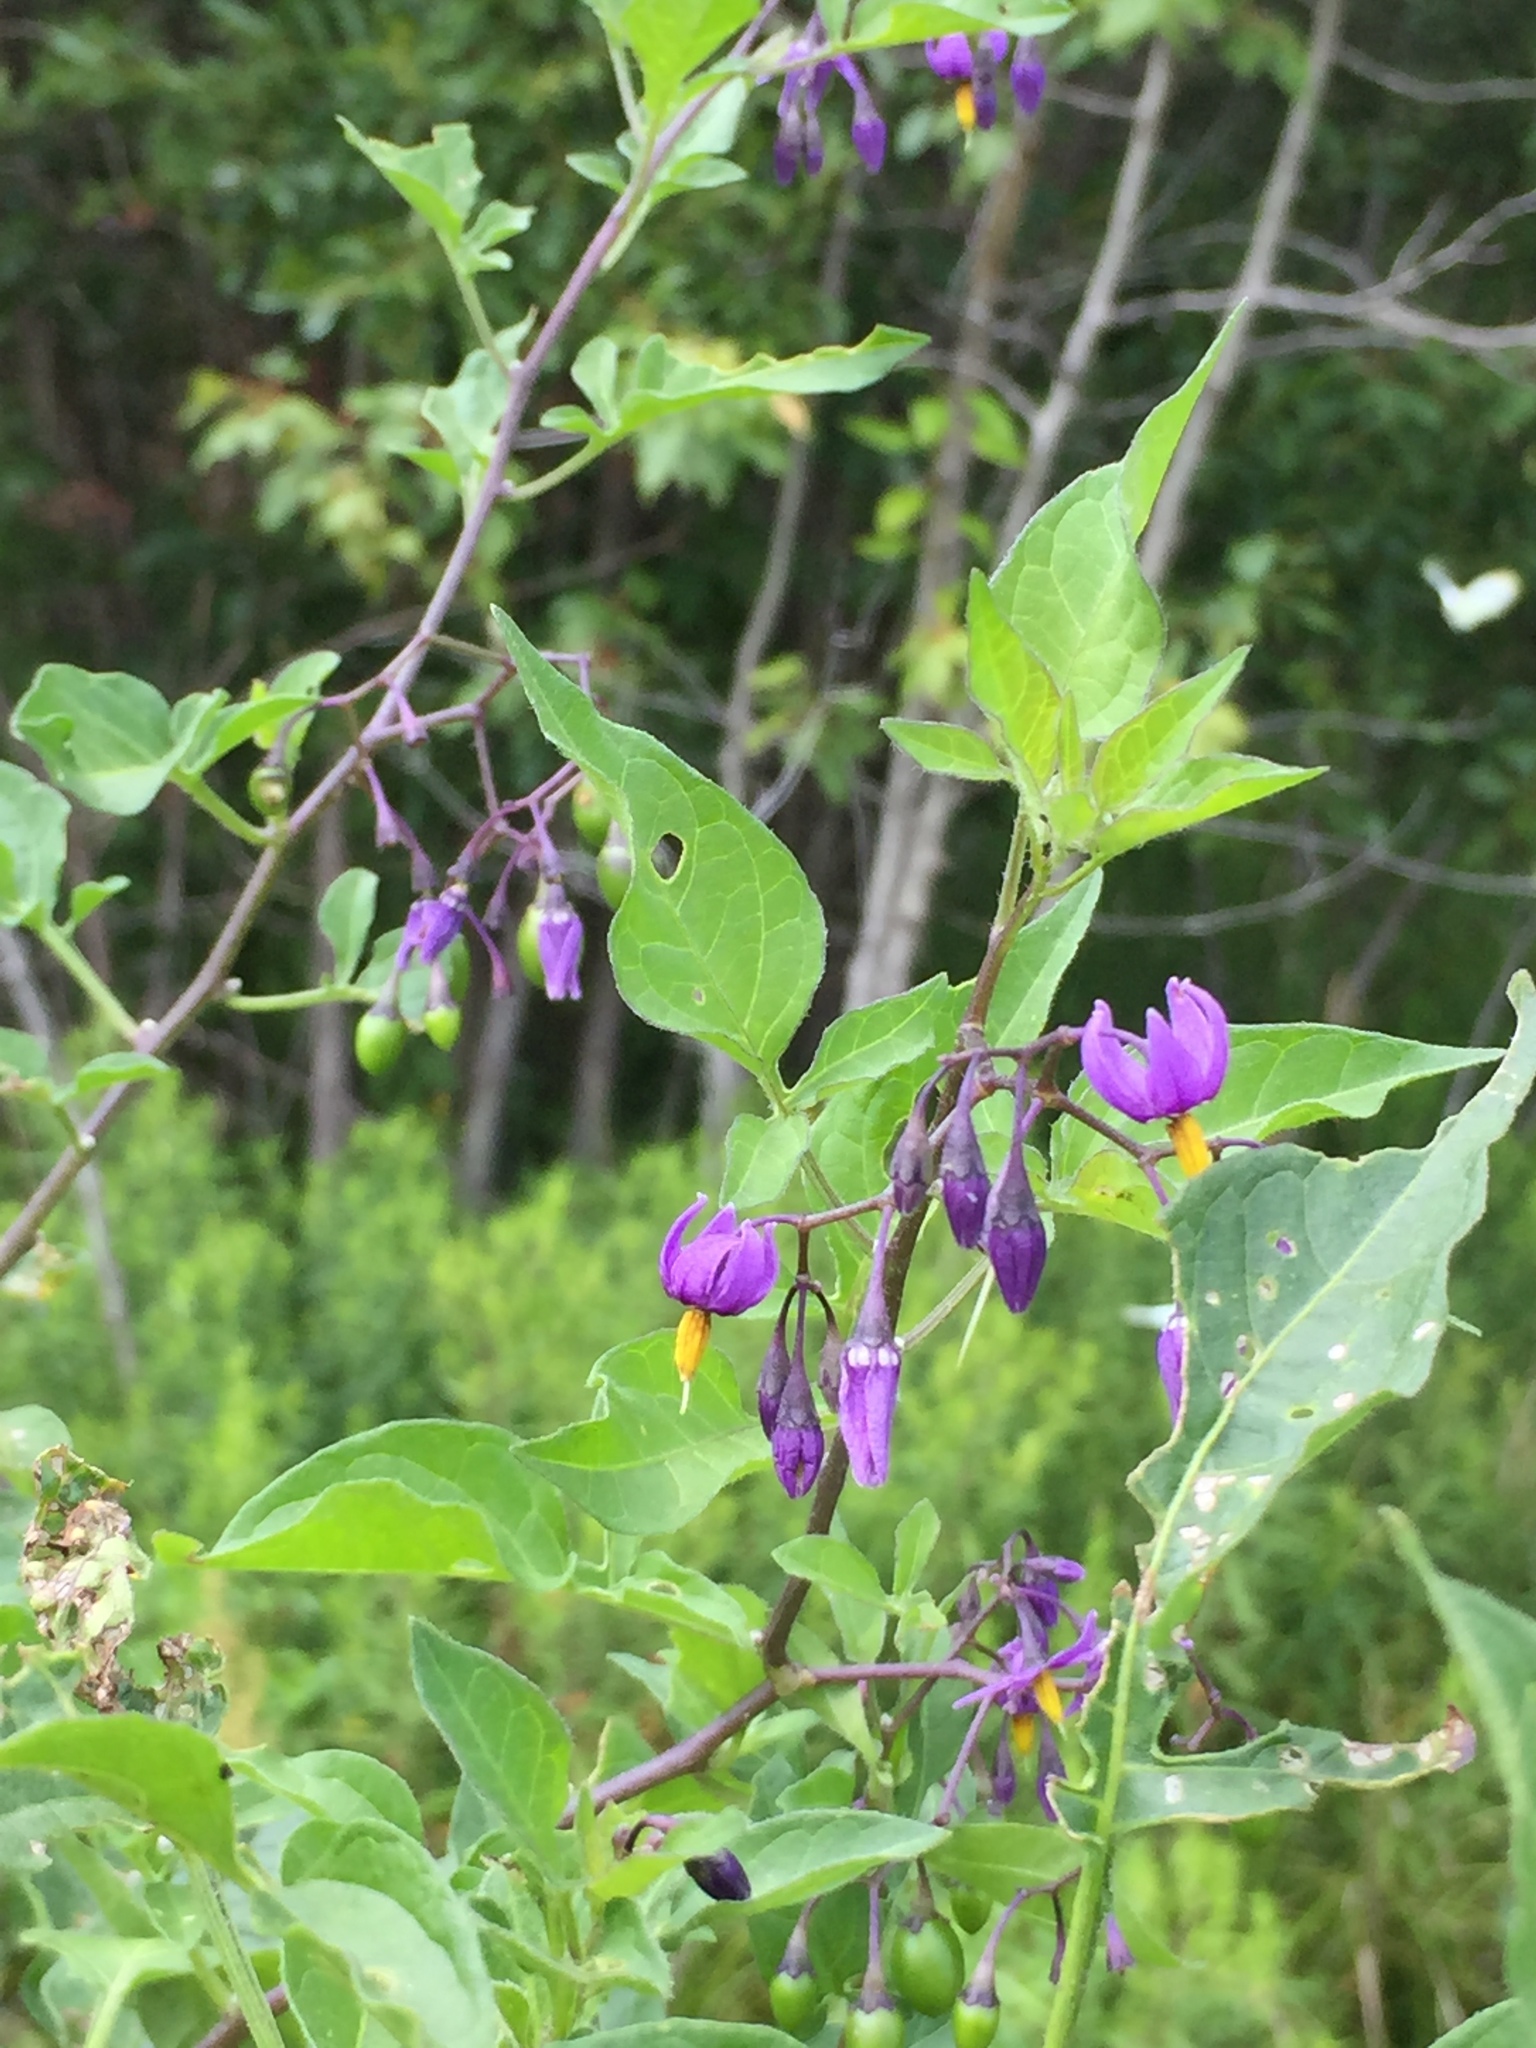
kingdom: Plantae
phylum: Tracheophyta
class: Magnoliopsida
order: Solanales
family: Solanaceae
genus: Solanum
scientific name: Solanum dulcamara
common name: Climbing nightshade
